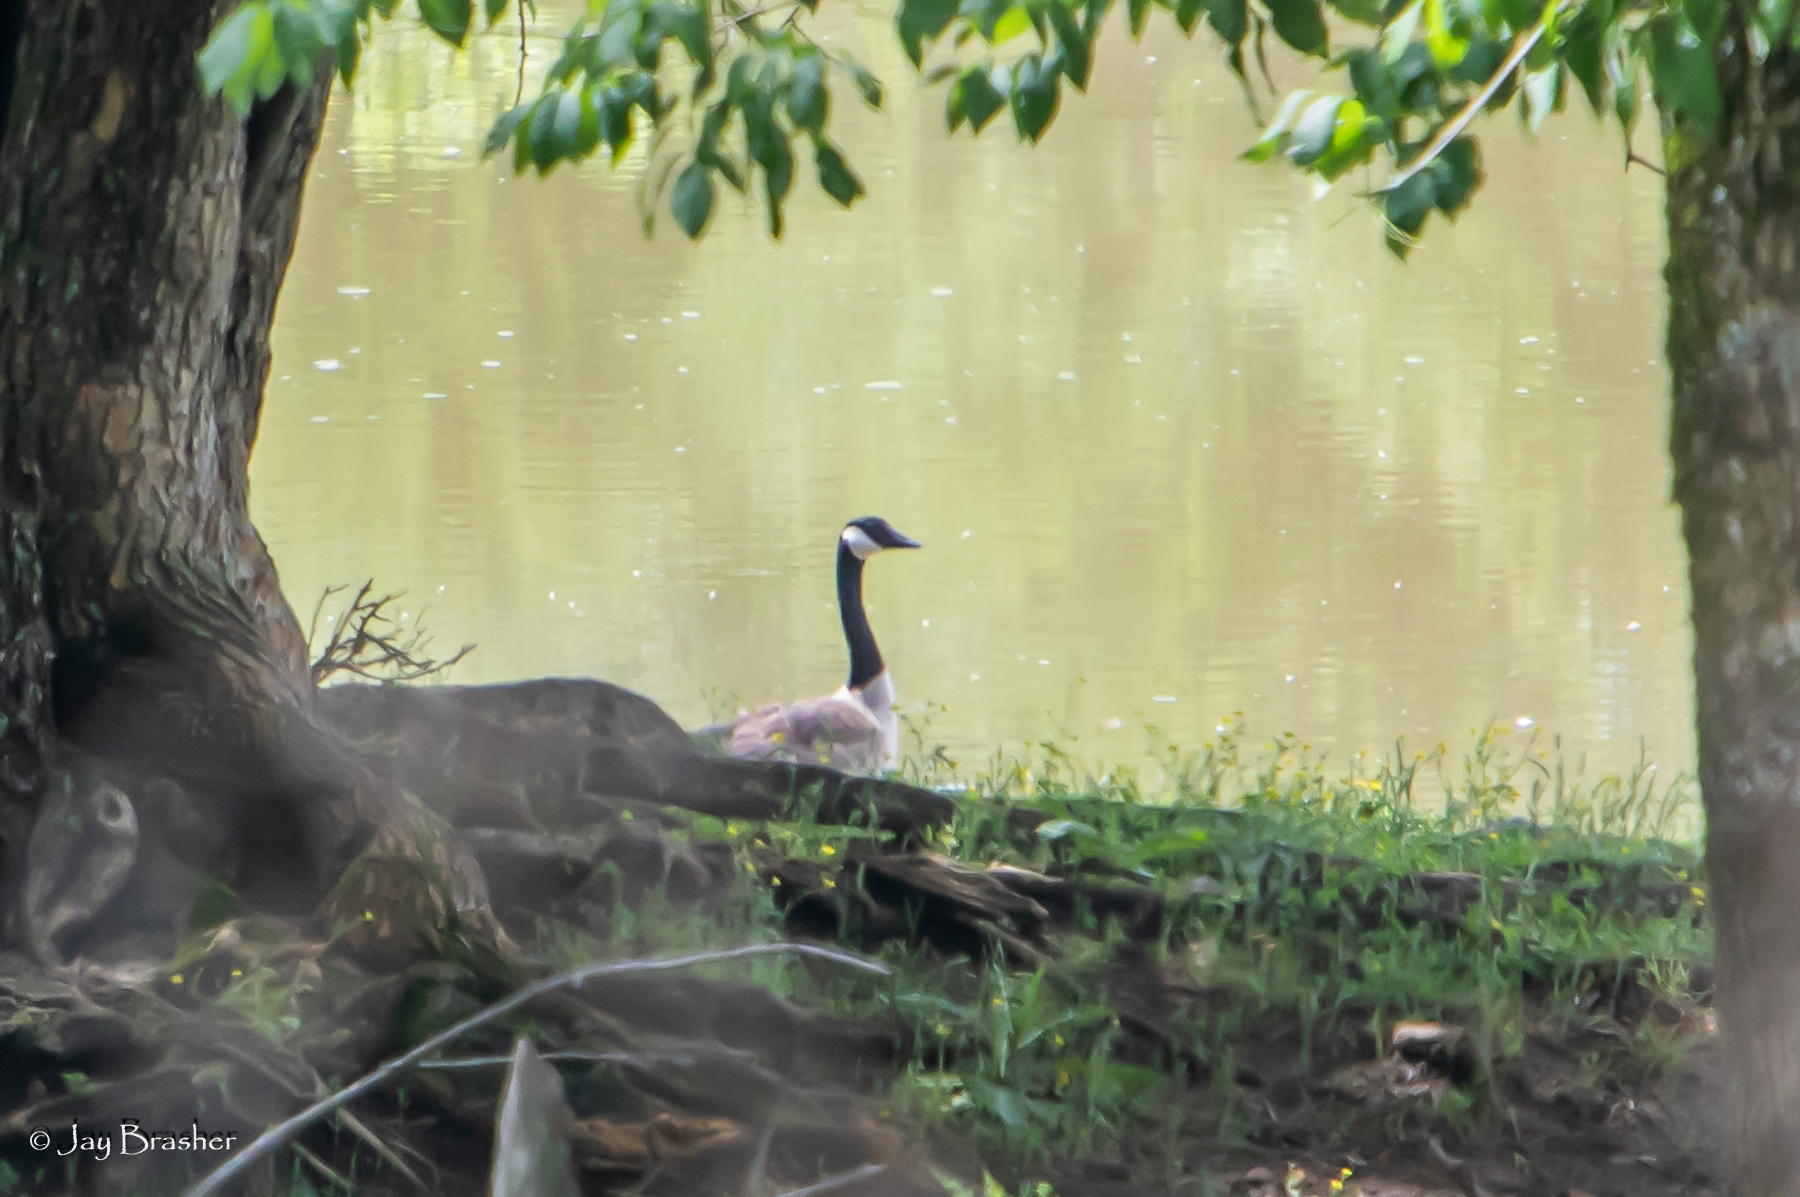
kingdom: Animalia
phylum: Chordata
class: Aves
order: Anseriformes
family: Anatidae
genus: Branta
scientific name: Branta canadensis
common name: Canada goose
